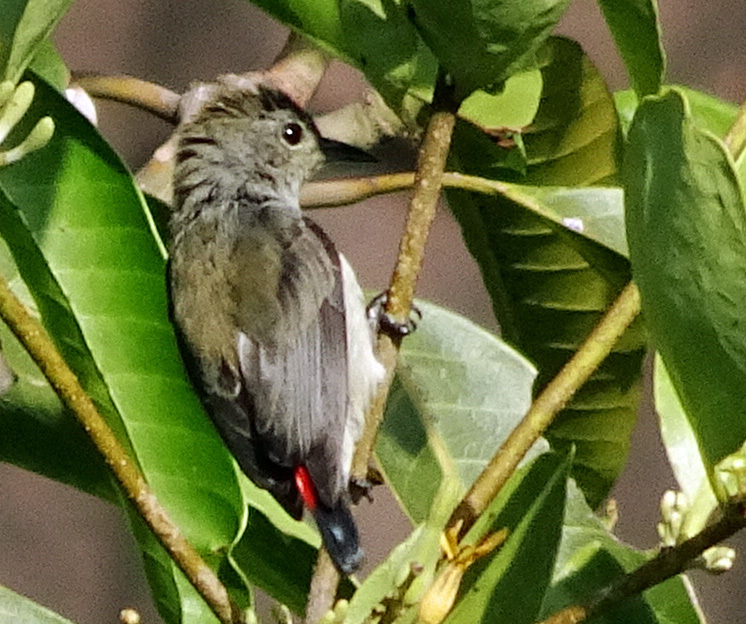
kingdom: Animalia
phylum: Chordata
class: Aves
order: Passeriformes
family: Dicaeidae
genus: Dicaeum
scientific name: Dicaeum cruentatum
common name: Scarlet-backed flowerpecker
